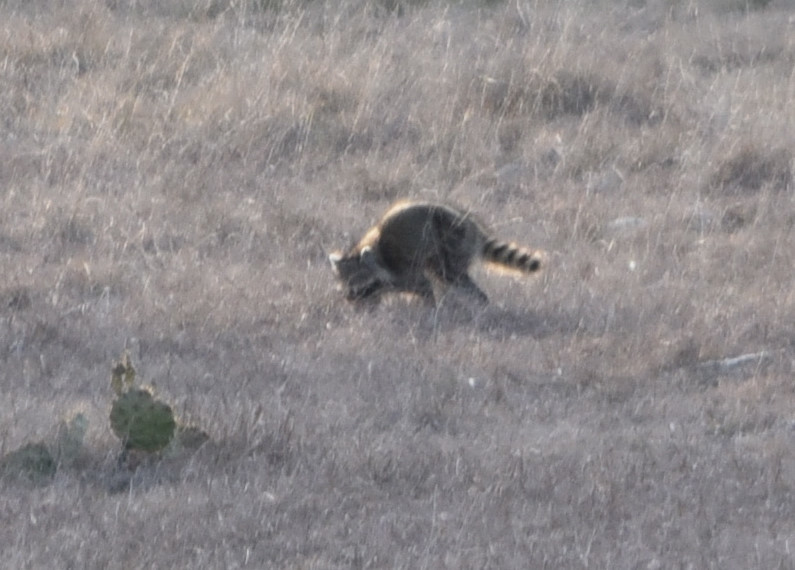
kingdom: Animalia
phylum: Chordata
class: Mammalia
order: Carnivora
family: Procyonidae
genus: Procyon
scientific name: Procyon lotor
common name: Raccoon
